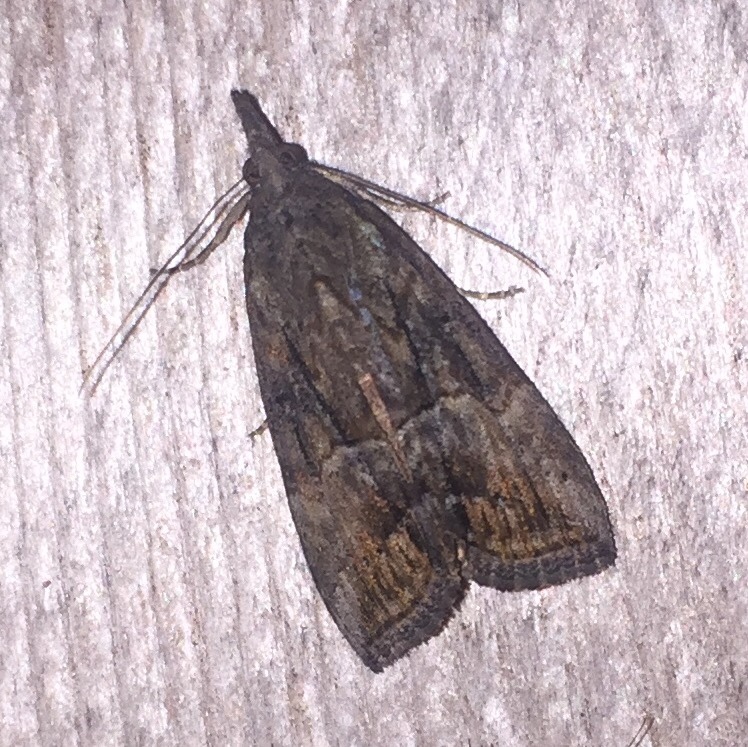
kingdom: Animalia
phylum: Arthropoda
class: Insecta
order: Lepidoptera
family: Erebidae
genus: Hypena
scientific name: Hypena scabra
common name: Green cloverworm
